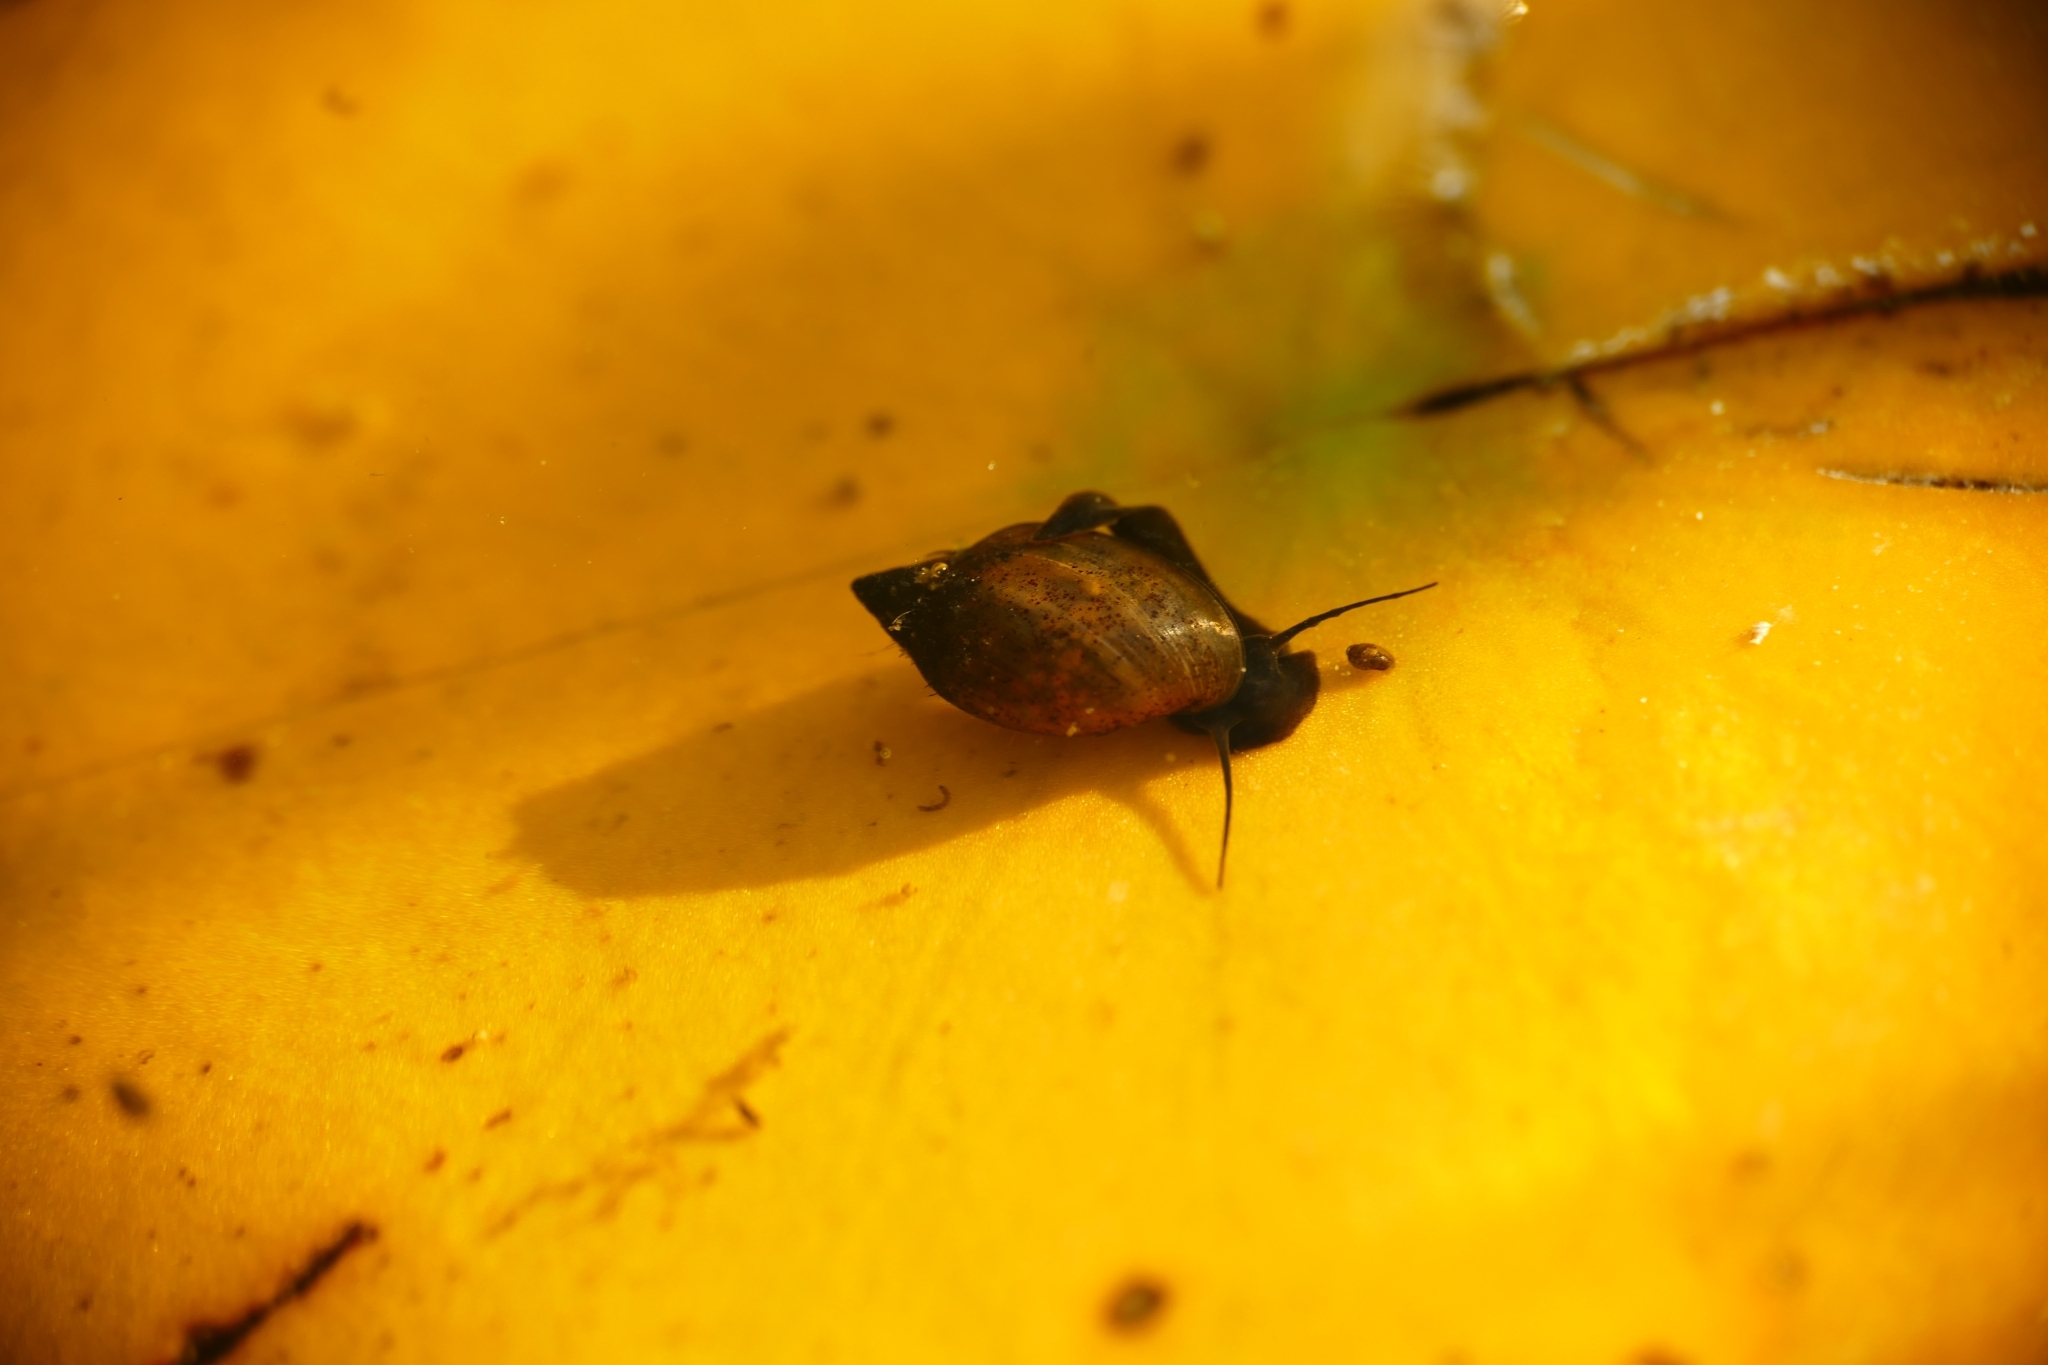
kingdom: Animalia
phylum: Mollusca
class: Gastropoda
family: Physidae
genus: Physella
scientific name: Physella acuta
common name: European physa
